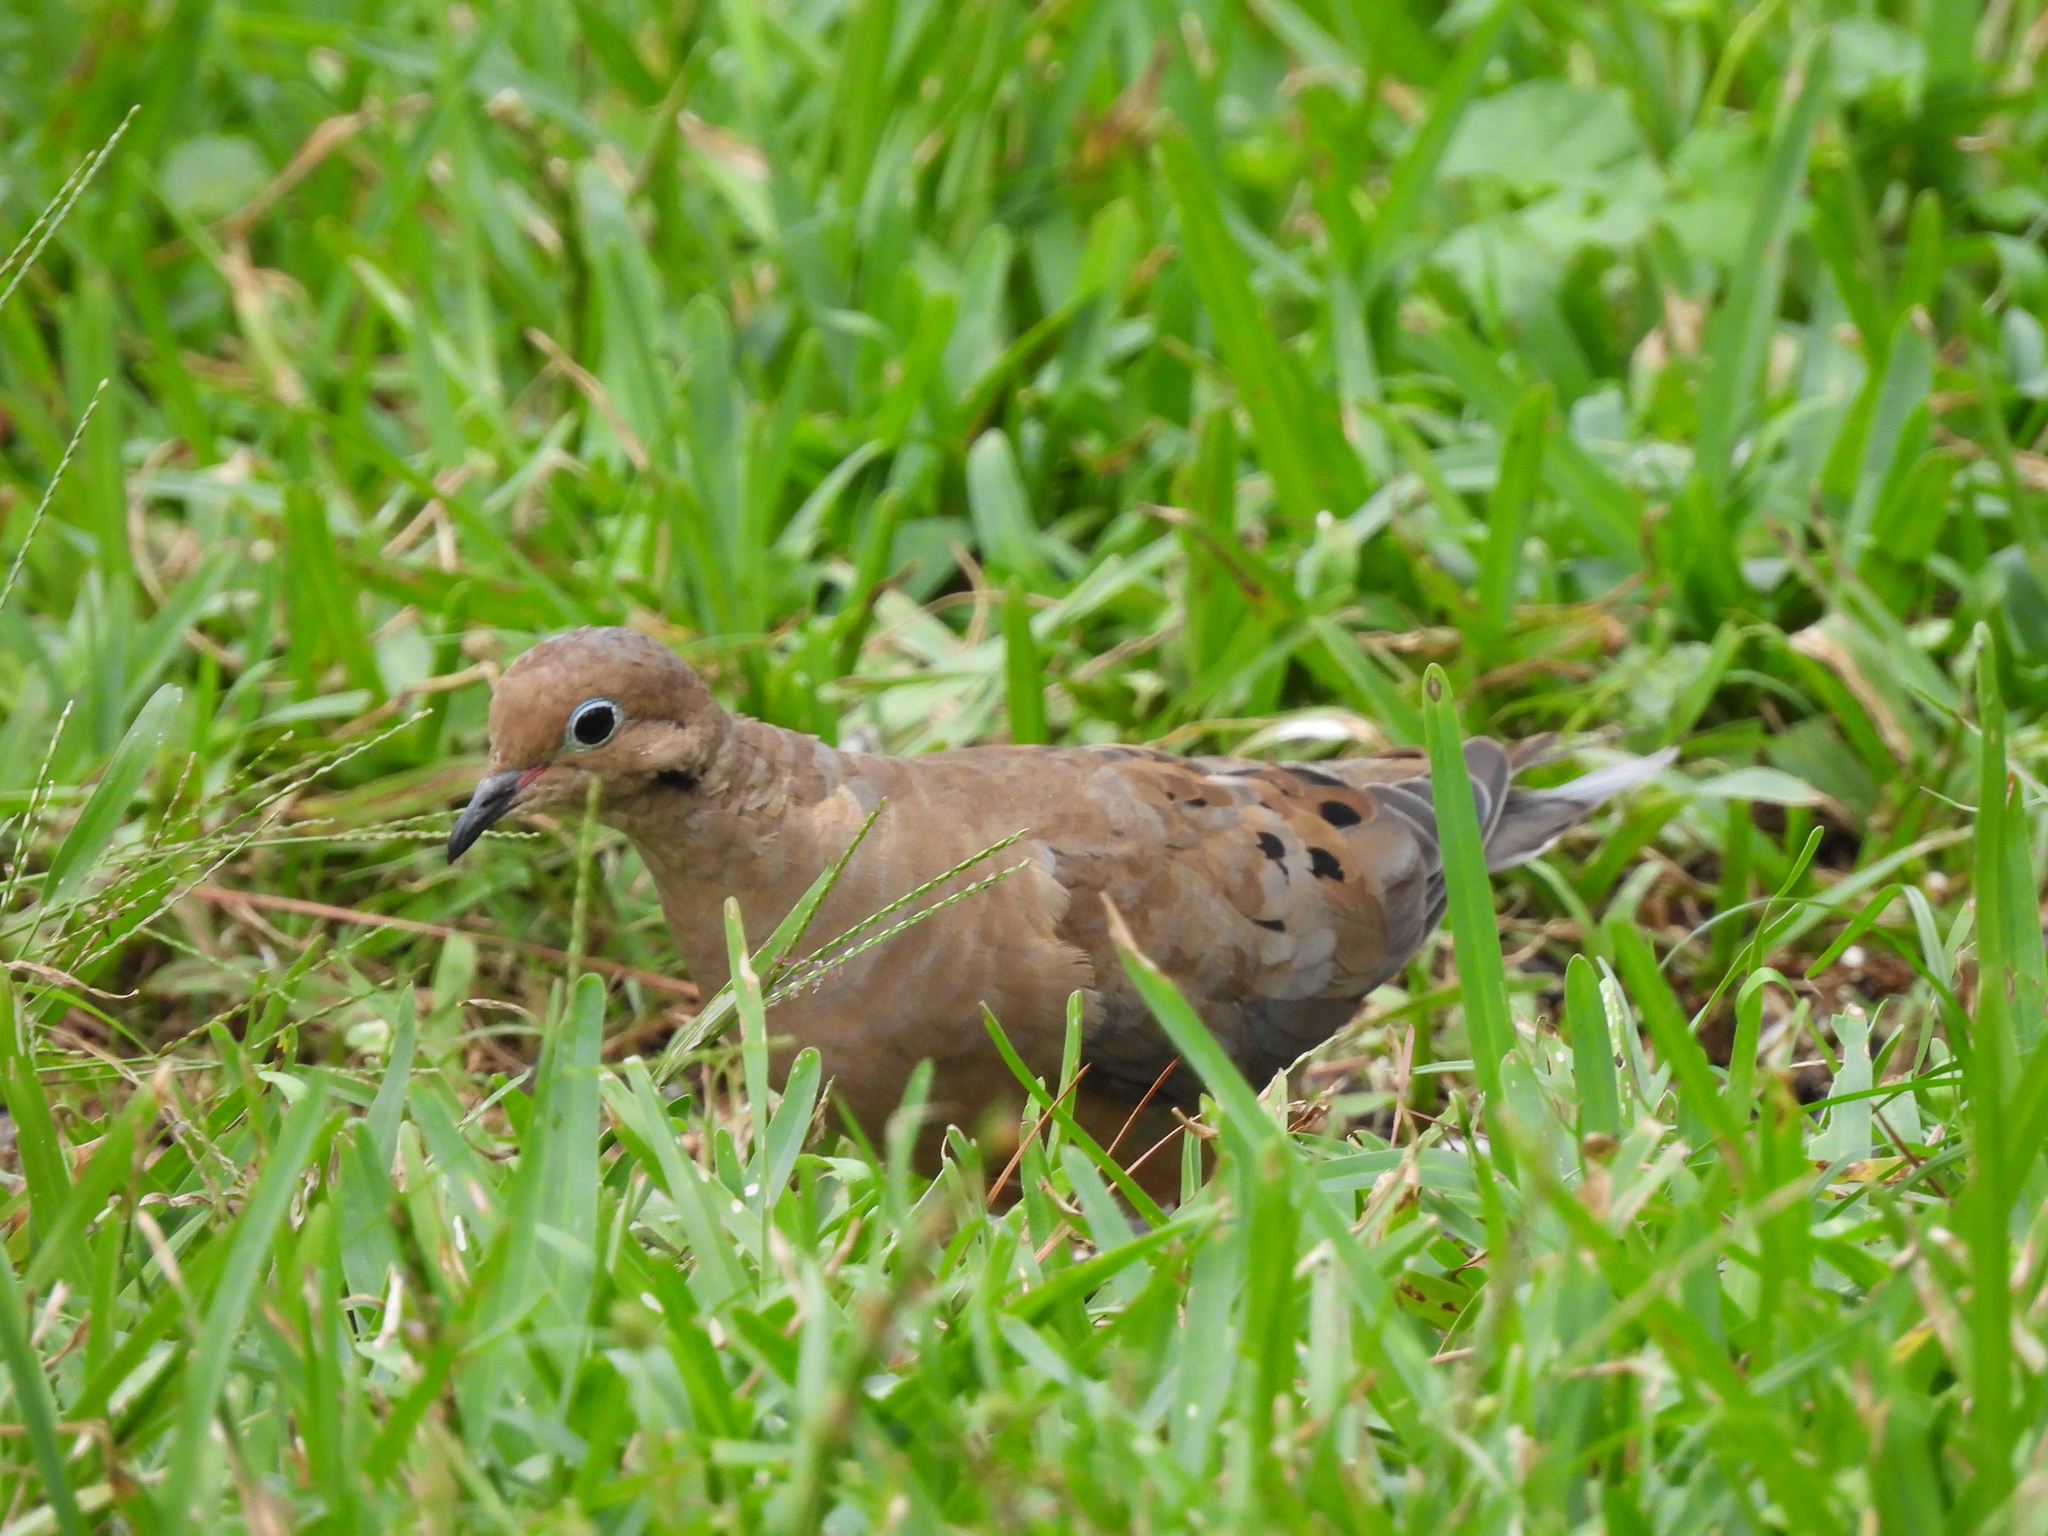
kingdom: Animalia
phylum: Chordata
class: Aves
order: Columbiformes
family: Columbidae
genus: Zenaida
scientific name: Zenaida macroura
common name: Mourning dove
